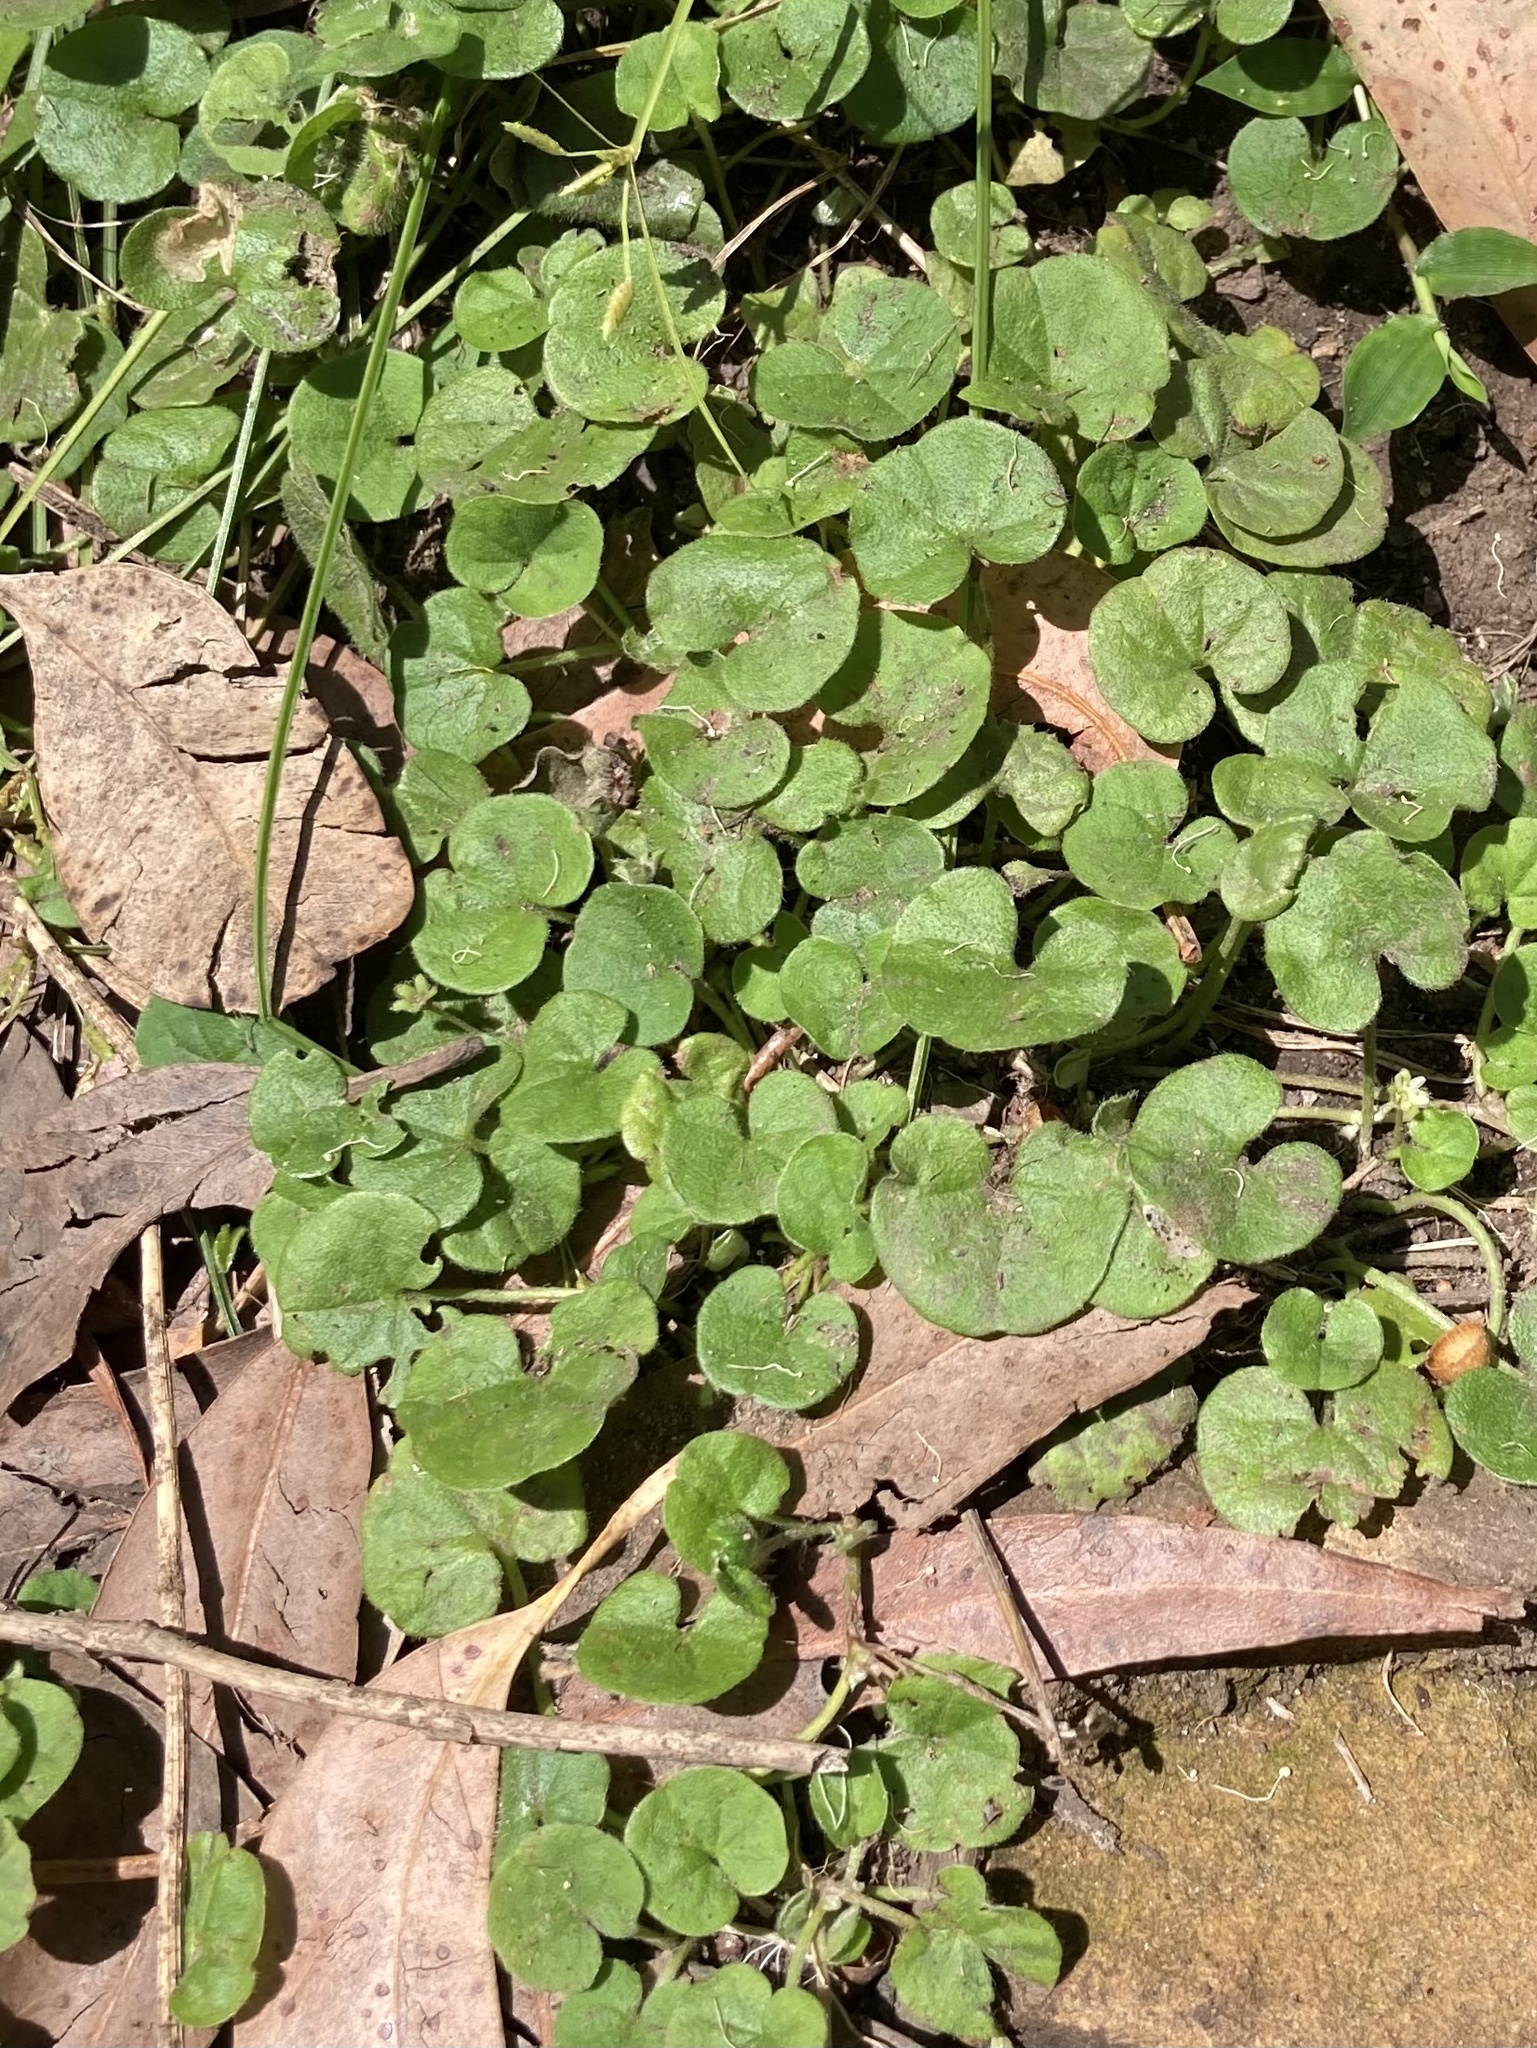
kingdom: Plantae
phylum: Tracheophyta
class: Magnoliopsida
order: Solanales
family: Convolvulaceae
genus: Dichondra
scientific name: Dichondra repens
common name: Kidneyweed
